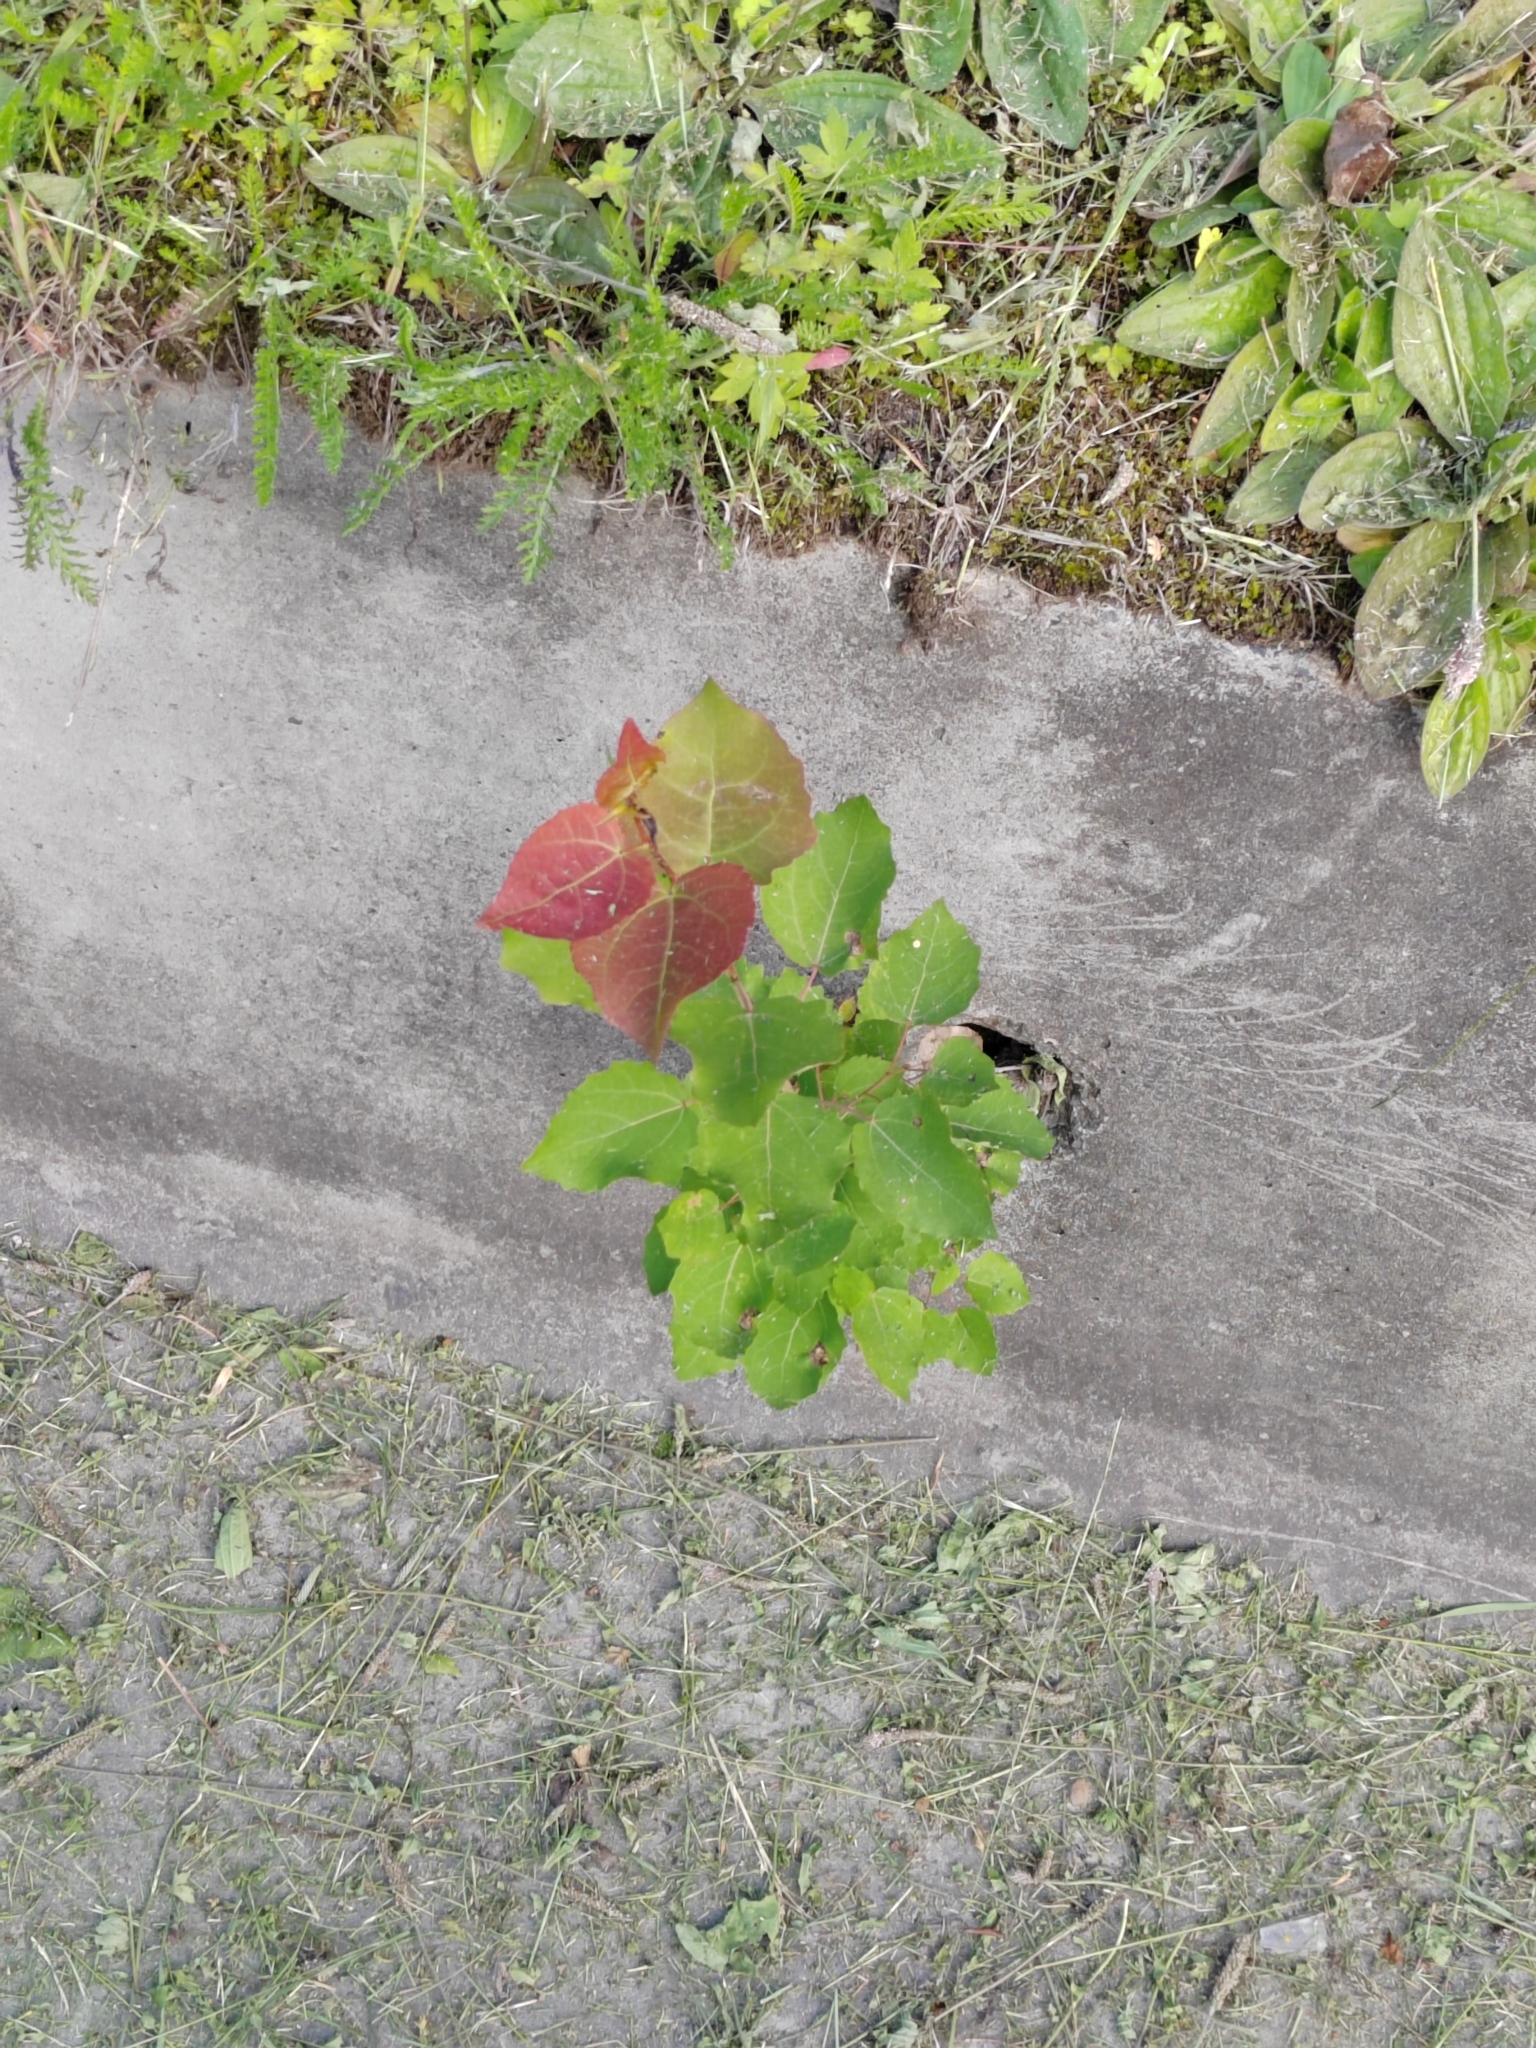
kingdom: Plantae
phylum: Tracheophyta
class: Magnoliopsida
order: Malpighiales
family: Salicaceae
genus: Populus
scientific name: Populus tremula
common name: European aspen
